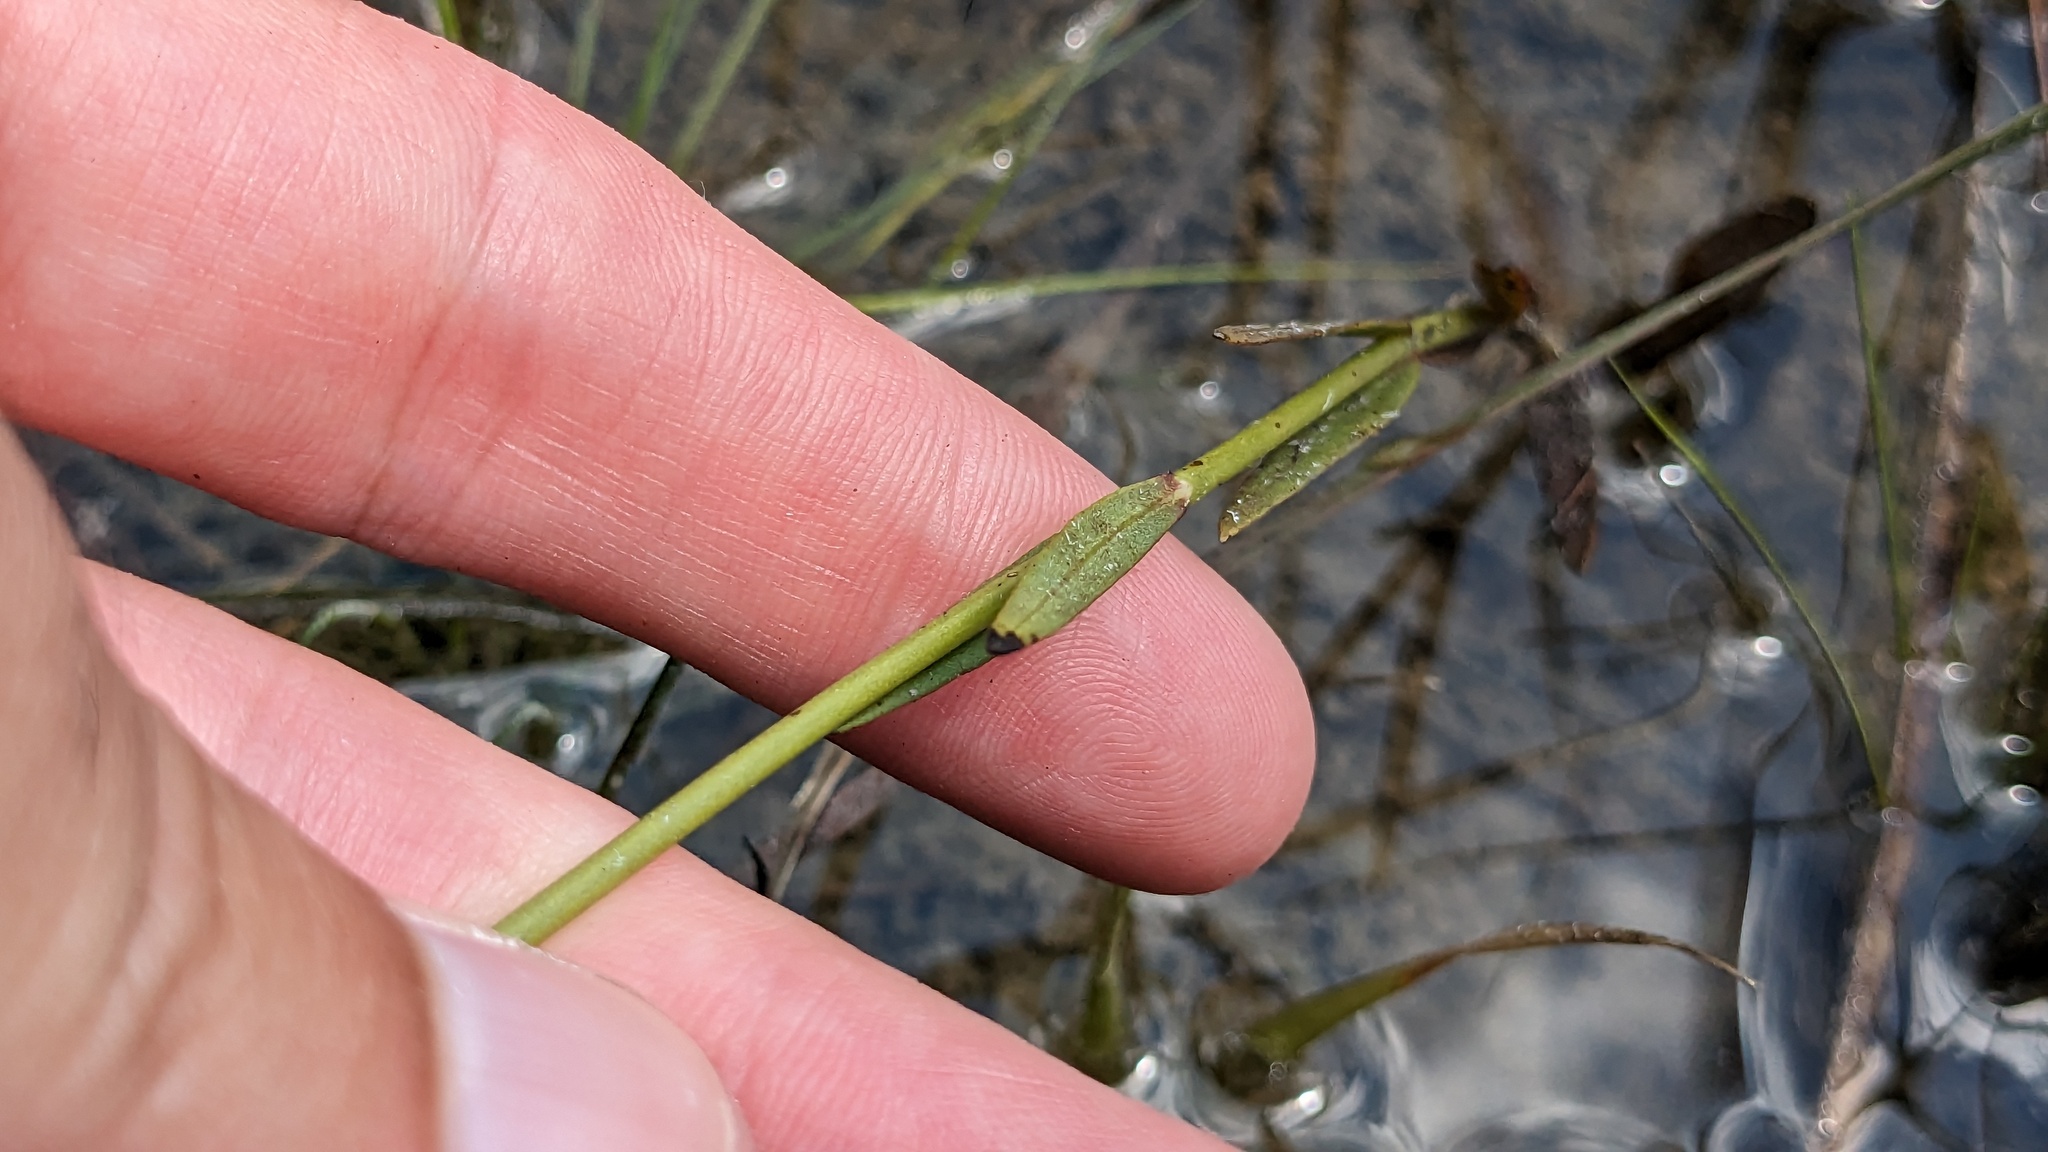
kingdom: Plantae
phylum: Tracheophyta
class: Magnoliopsida
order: Gentianales
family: Gentianaceae
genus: Sabatia
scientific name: Sabatia decandra
